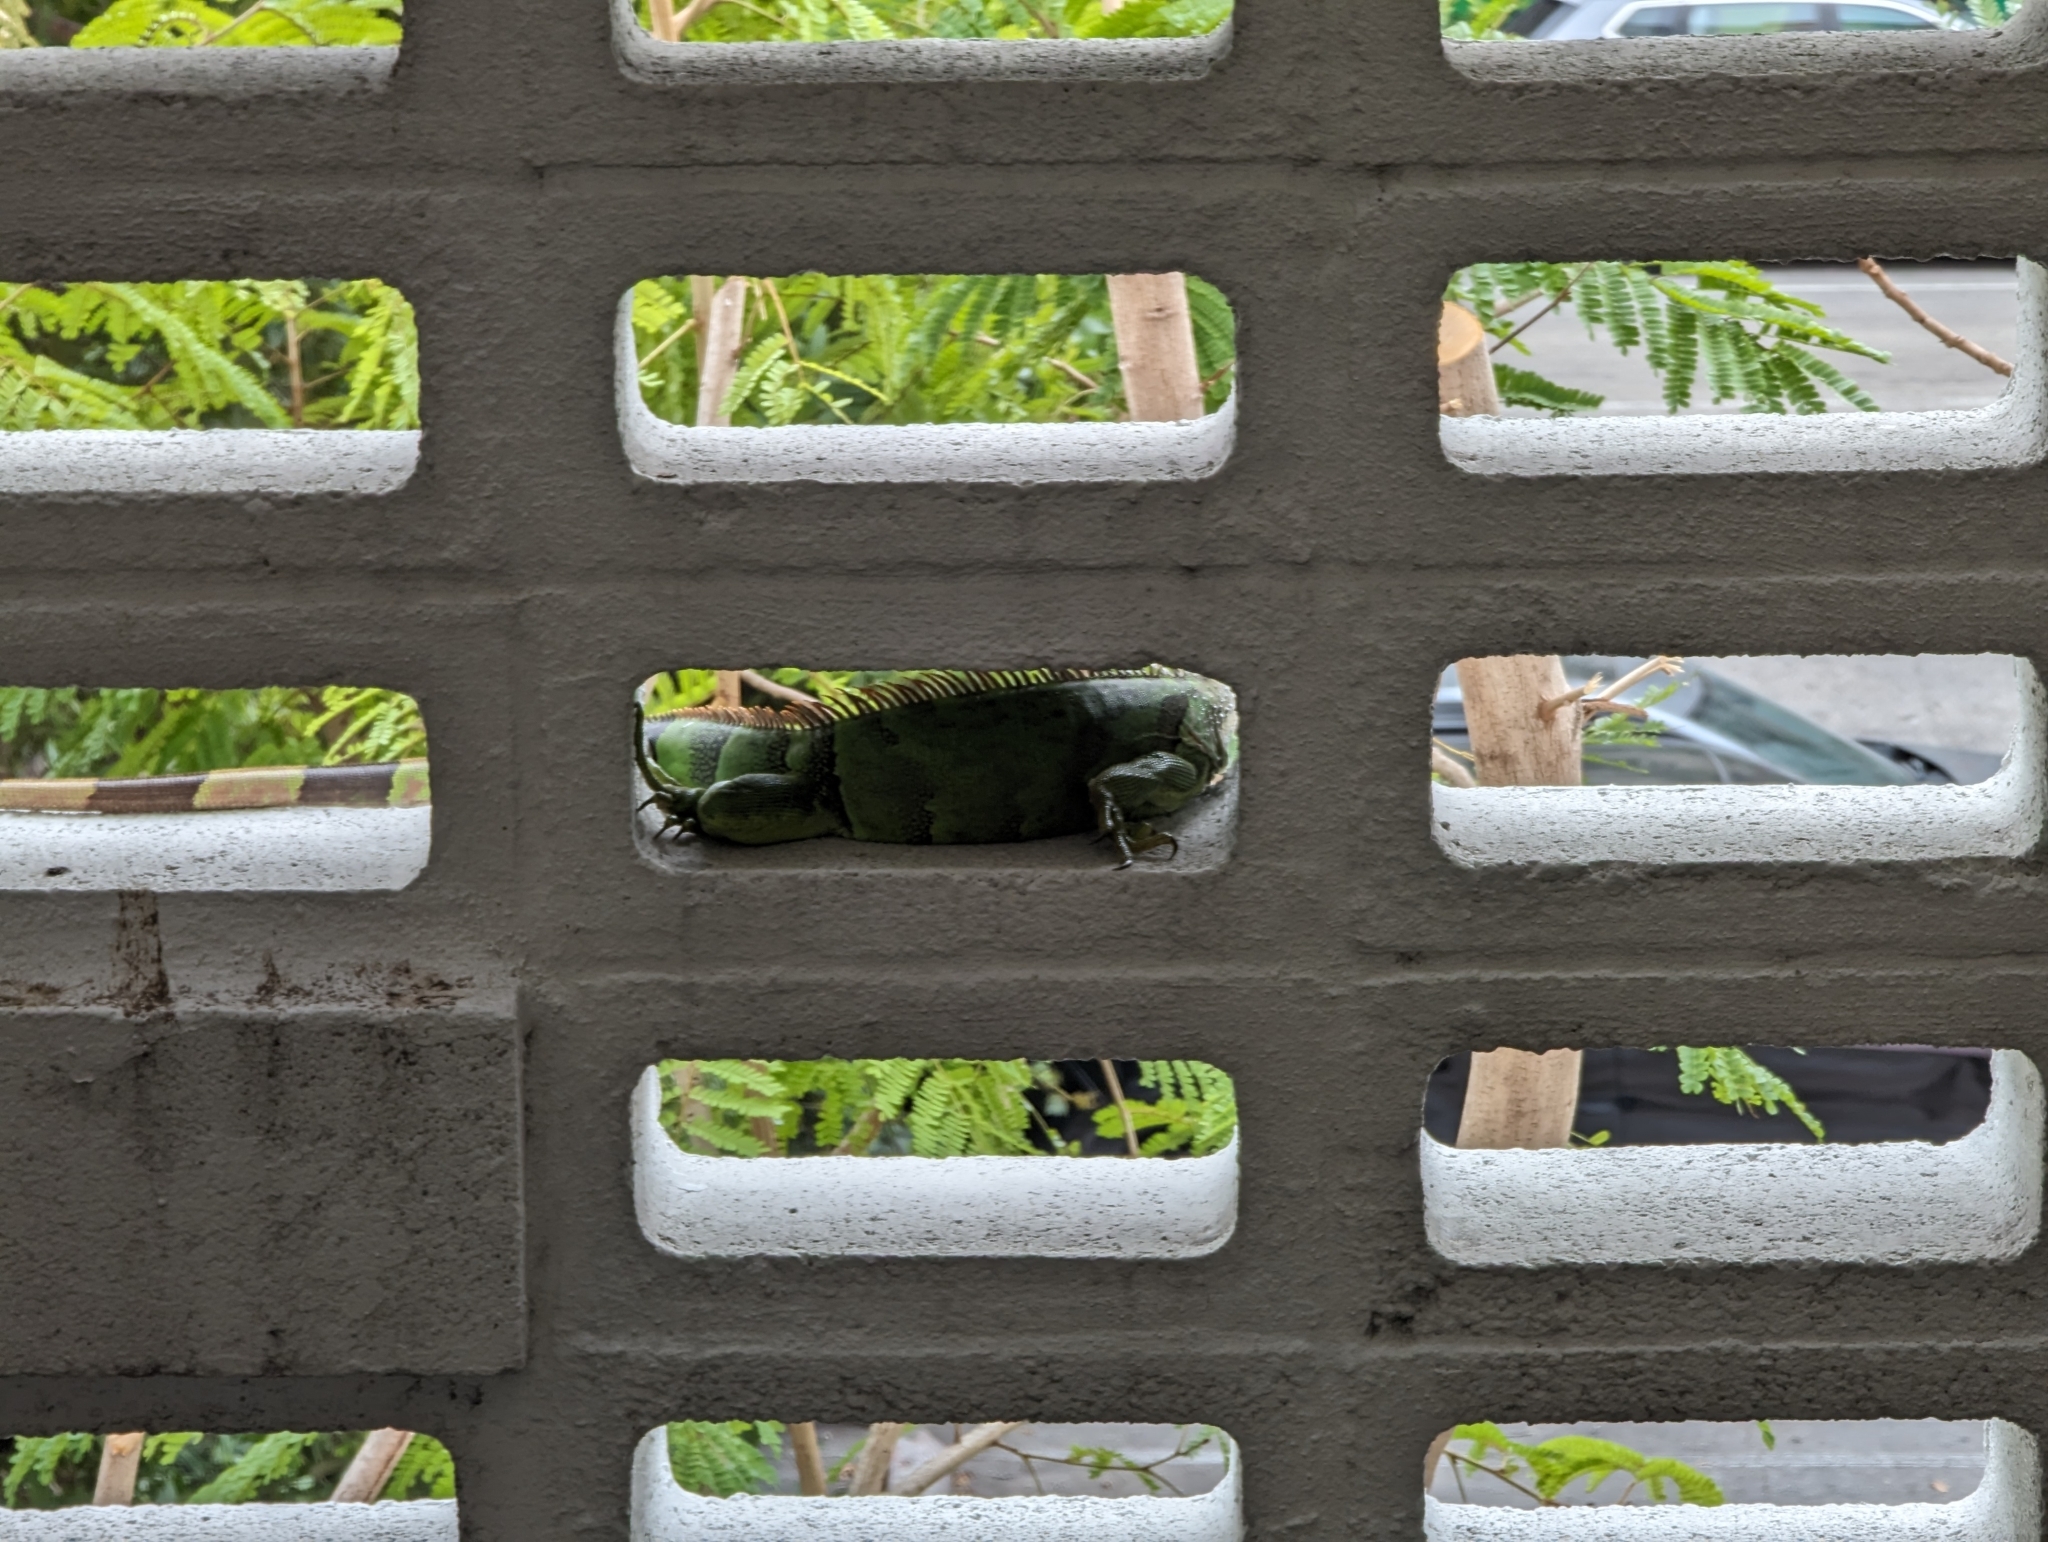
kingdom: Animalia
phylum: Chordata
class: Squamata
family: Iguanidae
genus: Iguana
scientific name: Iguana iguana
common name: Green iguana
